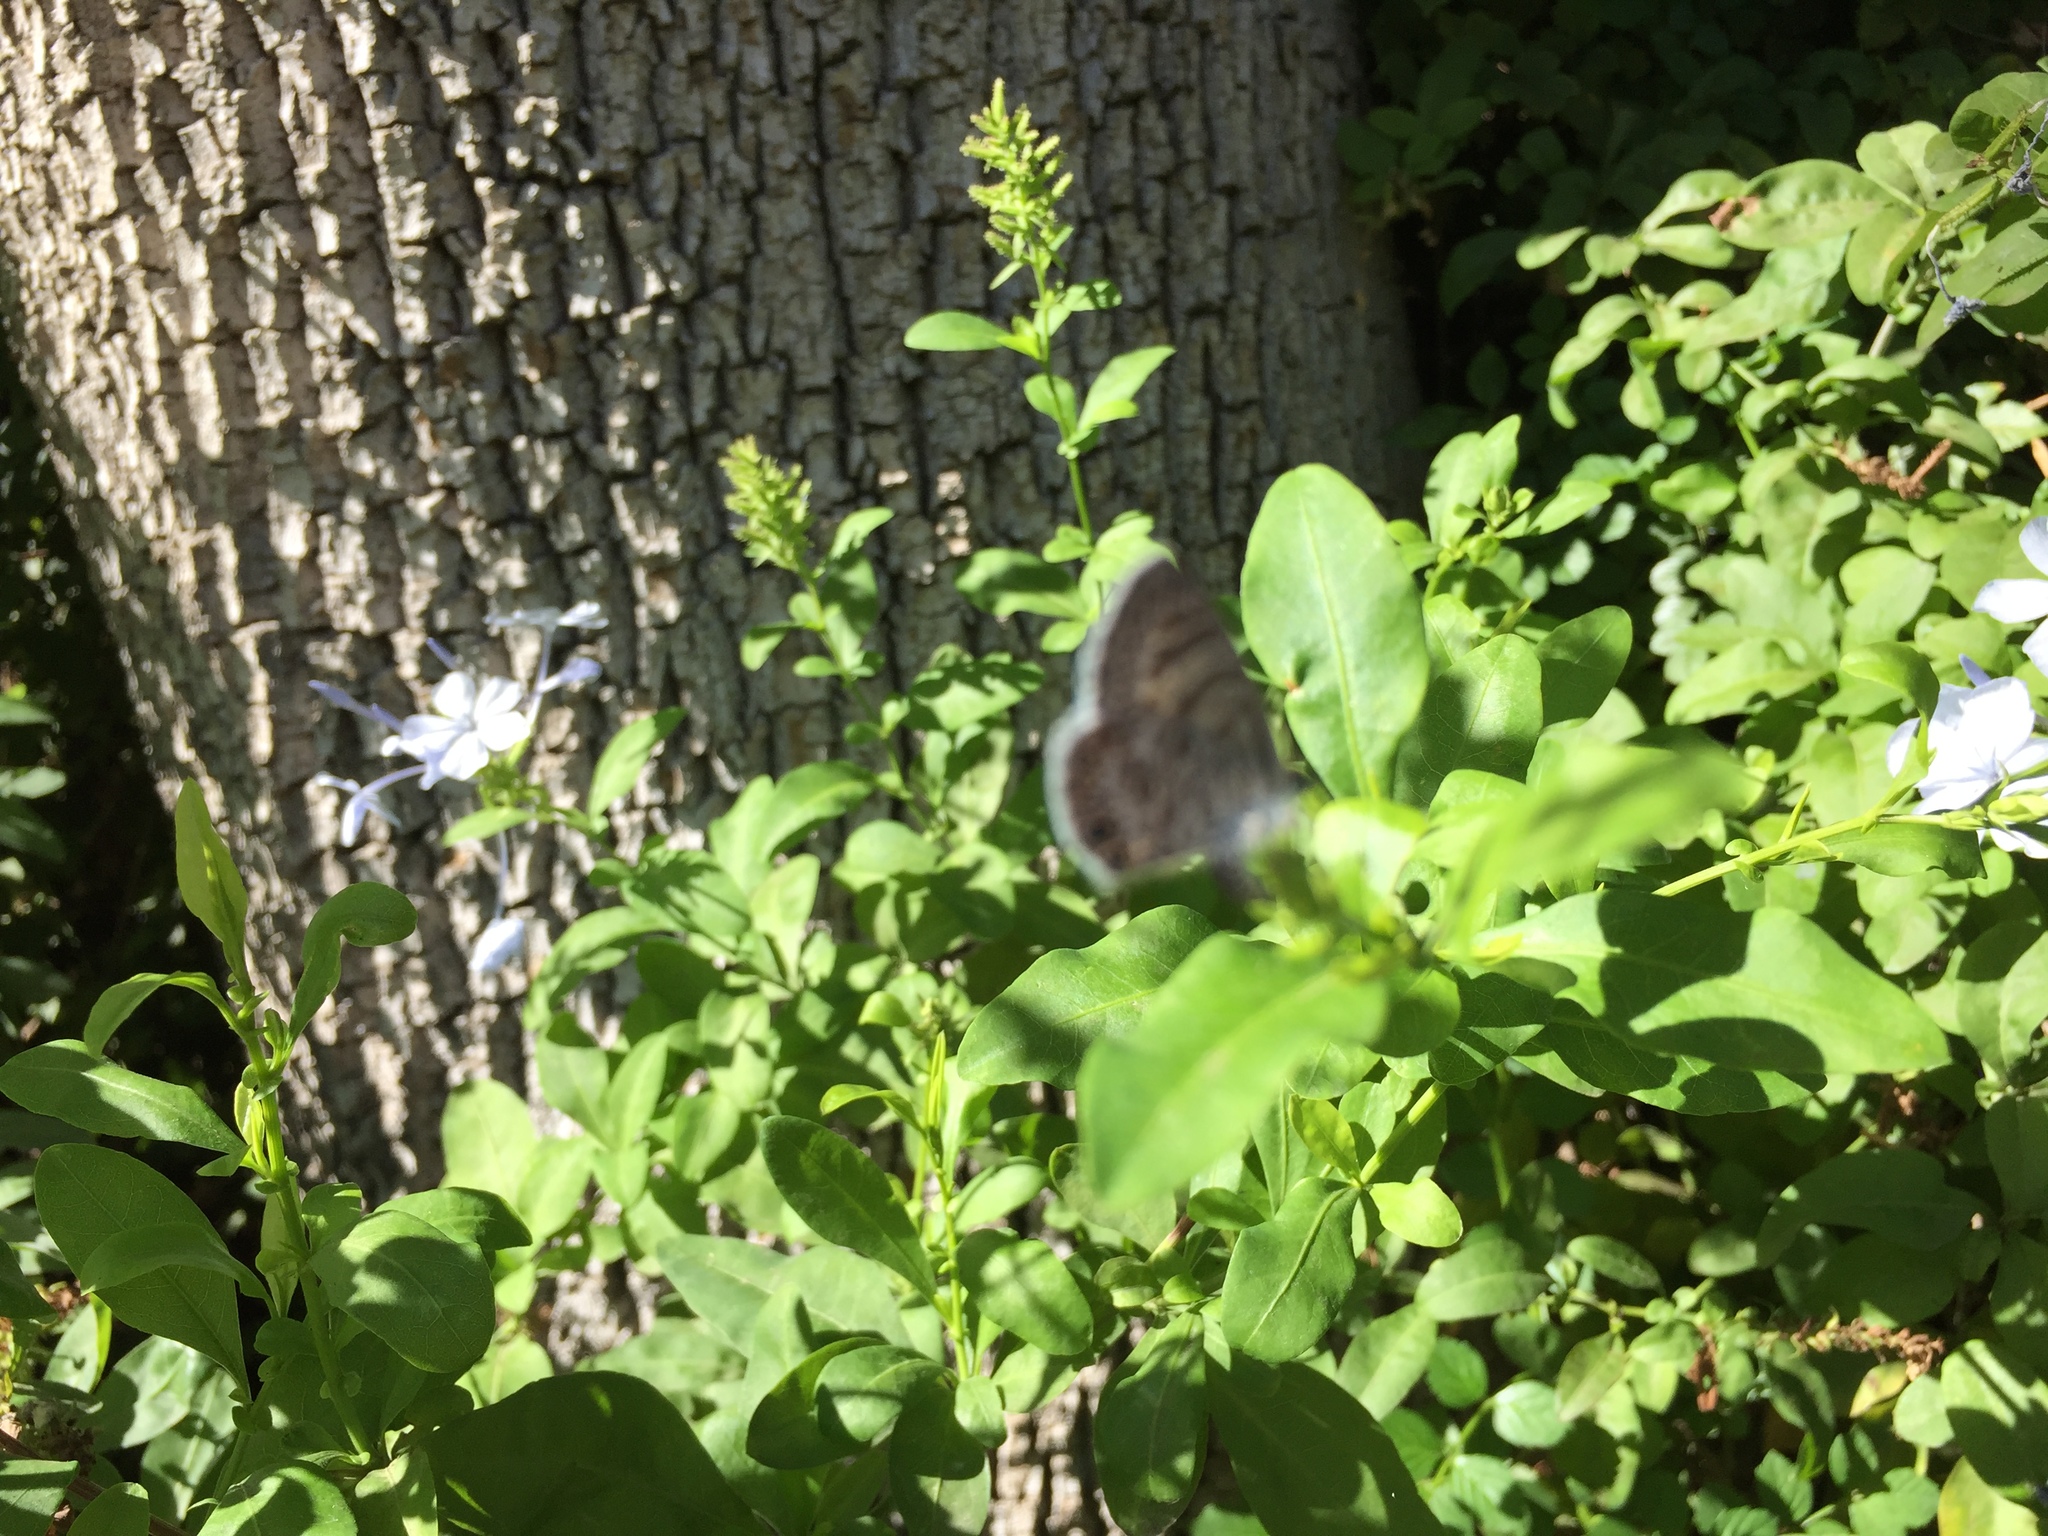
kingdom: Animalia
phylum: Arthropoda
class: Insecta
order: Lepidoptera
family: Lycaenidae
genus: Leptotes
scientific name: Leptotes marina
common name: Marine blue
